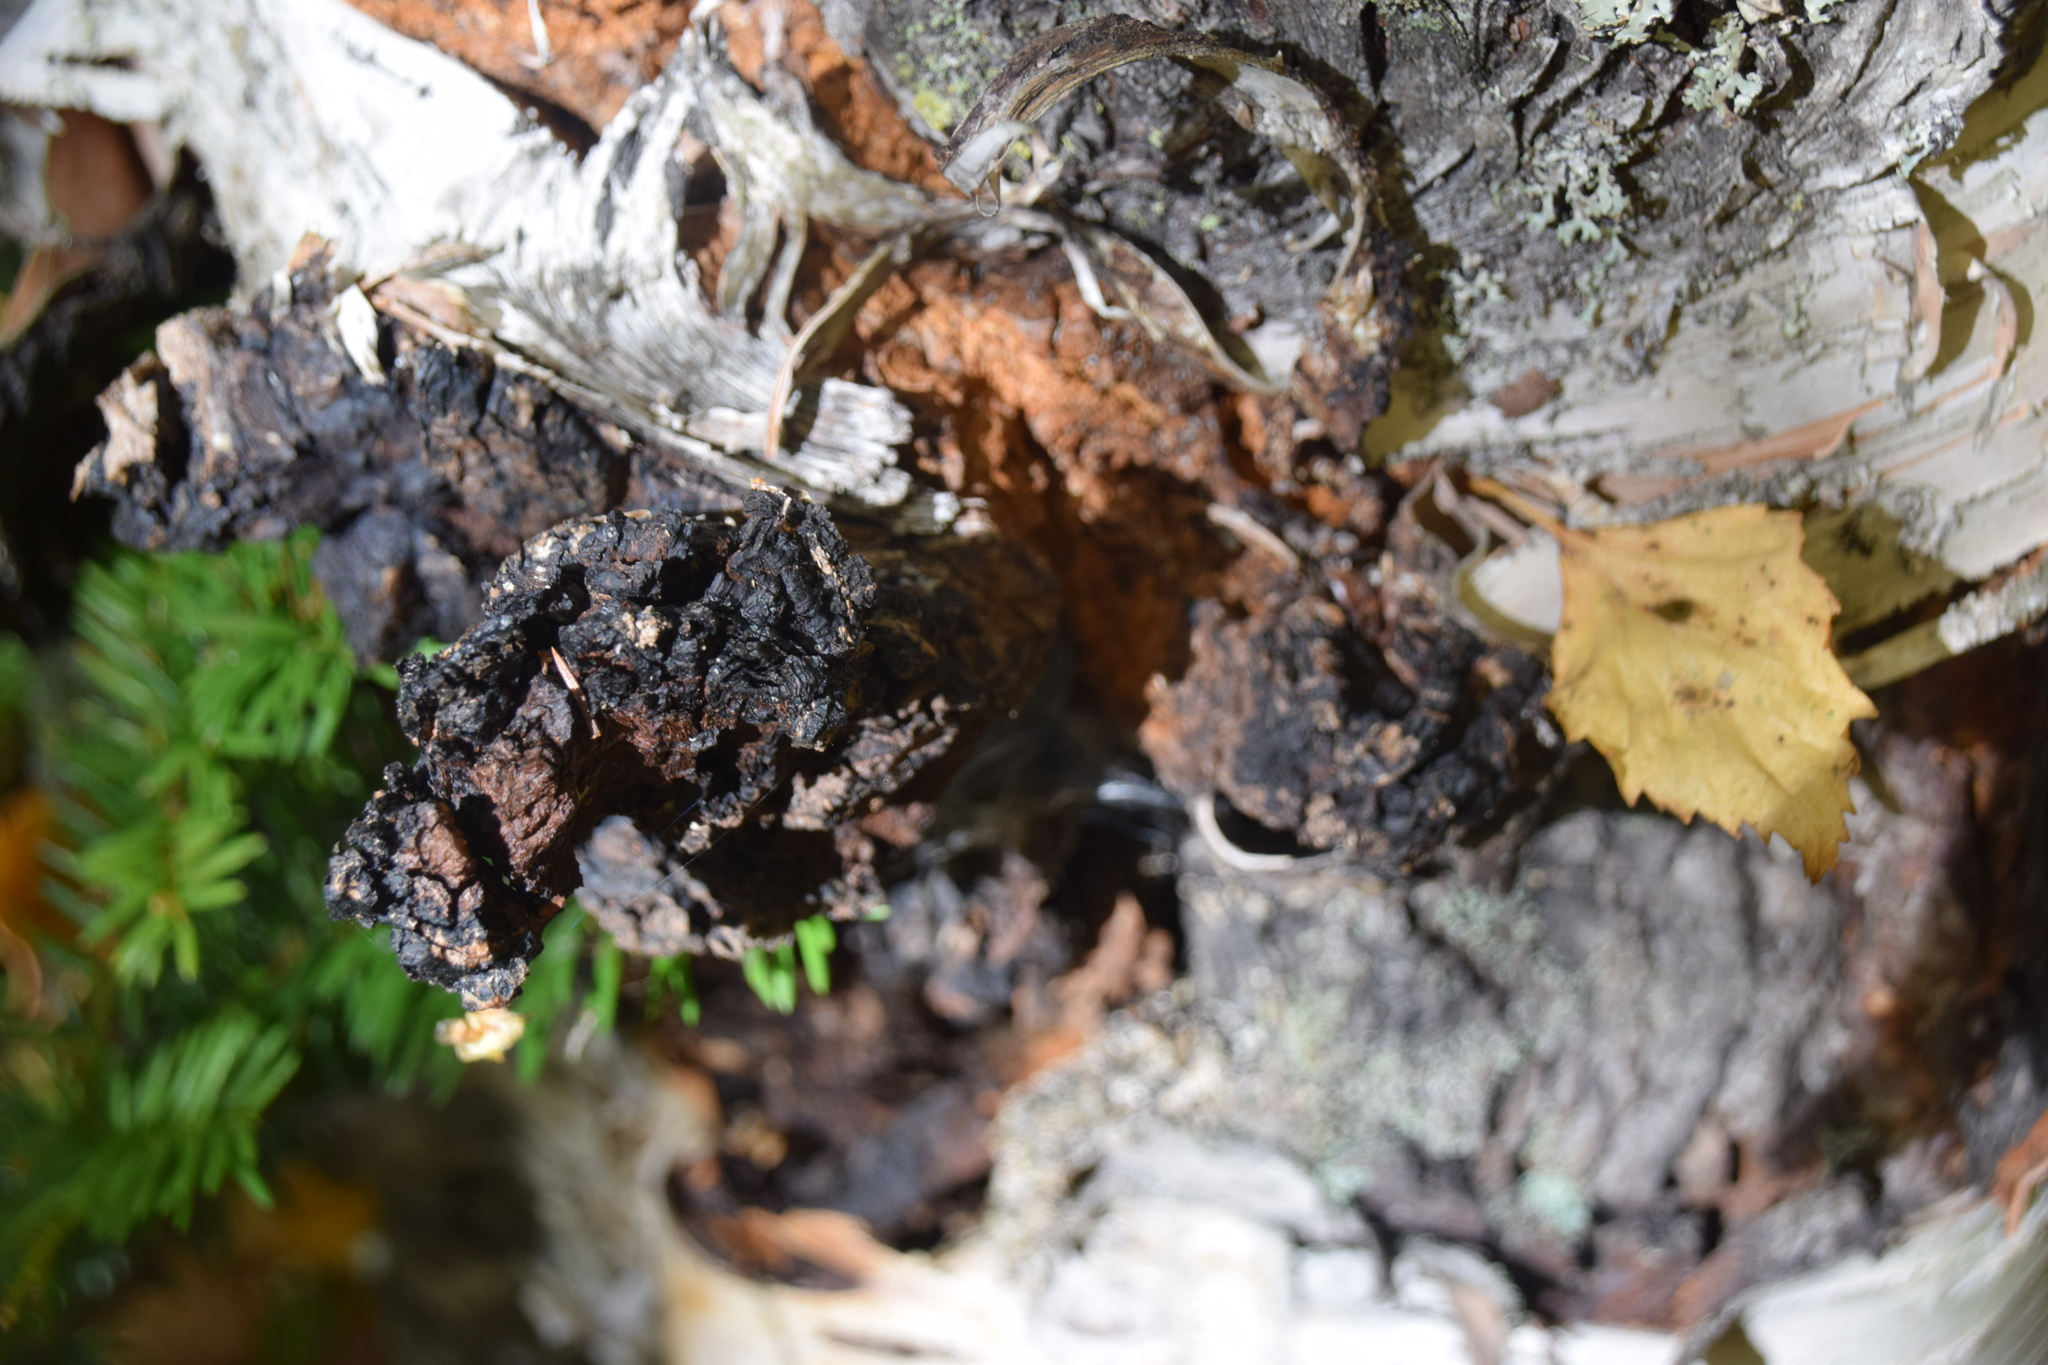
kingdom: Fungi
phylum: Basidiomycota
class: Agaricomycetes
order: Hymenochaetales
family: Hymenochaetaceae
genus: Inonotus
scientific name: Inonotus obliquus
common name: Chaga
